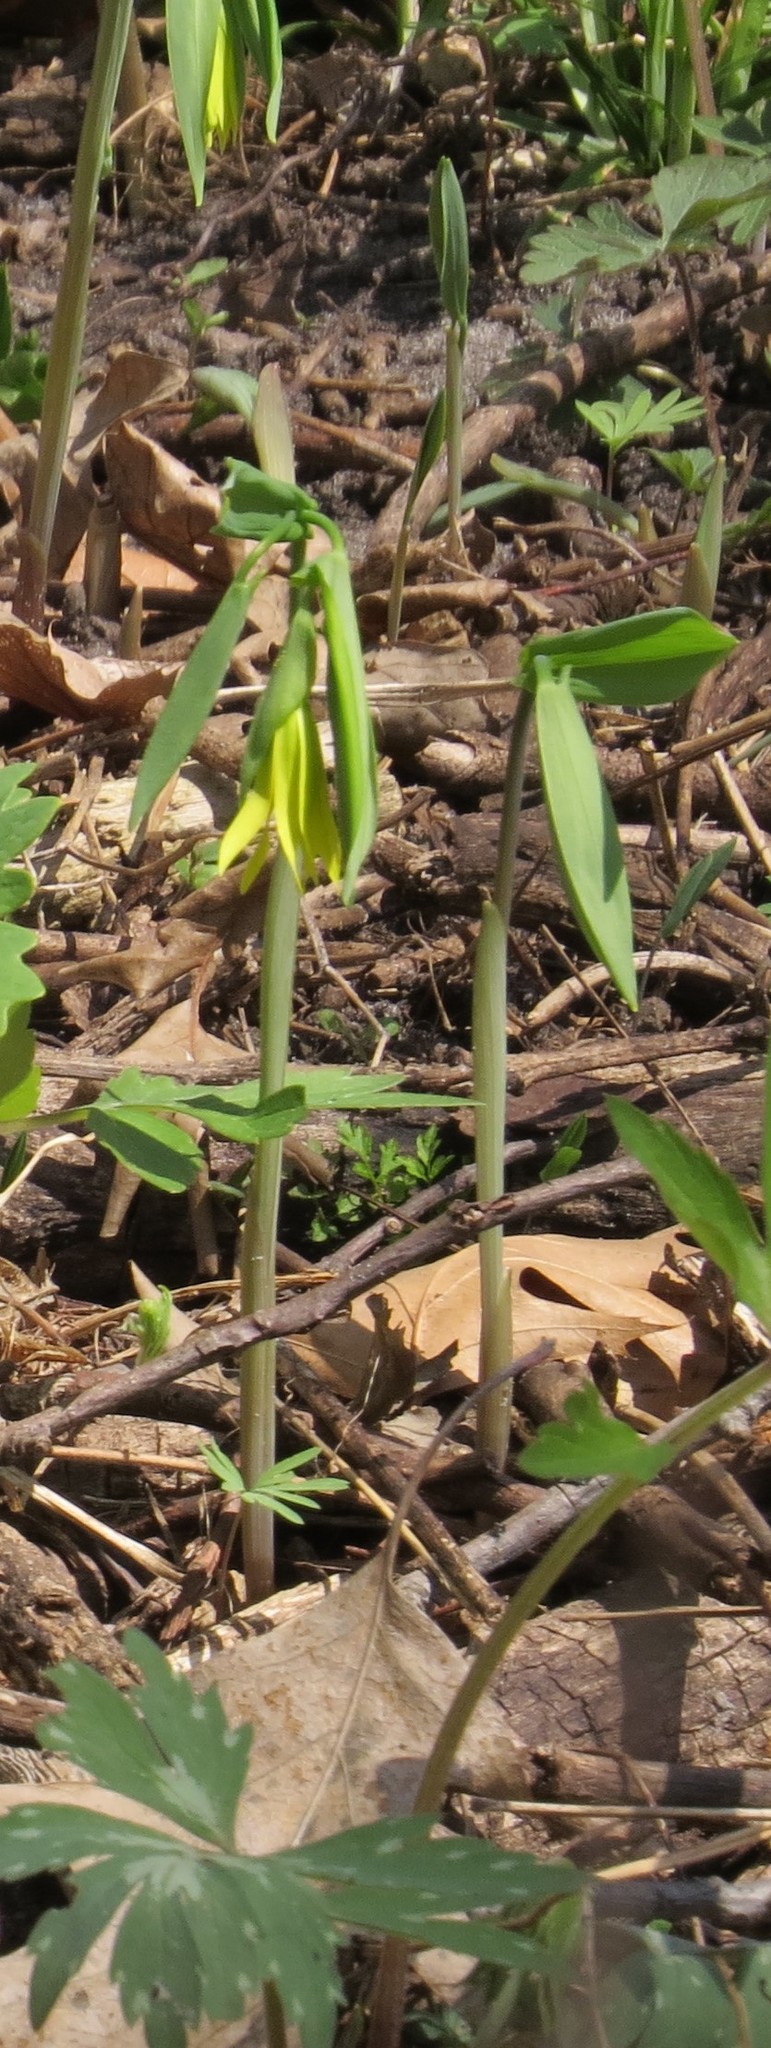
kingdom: Plantae
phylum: Tracheophyta
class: Liliopsida
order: Liliales
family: Colchicaceae
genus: Uvularia
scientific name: Uvularia grandiflora
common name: Bellwort
